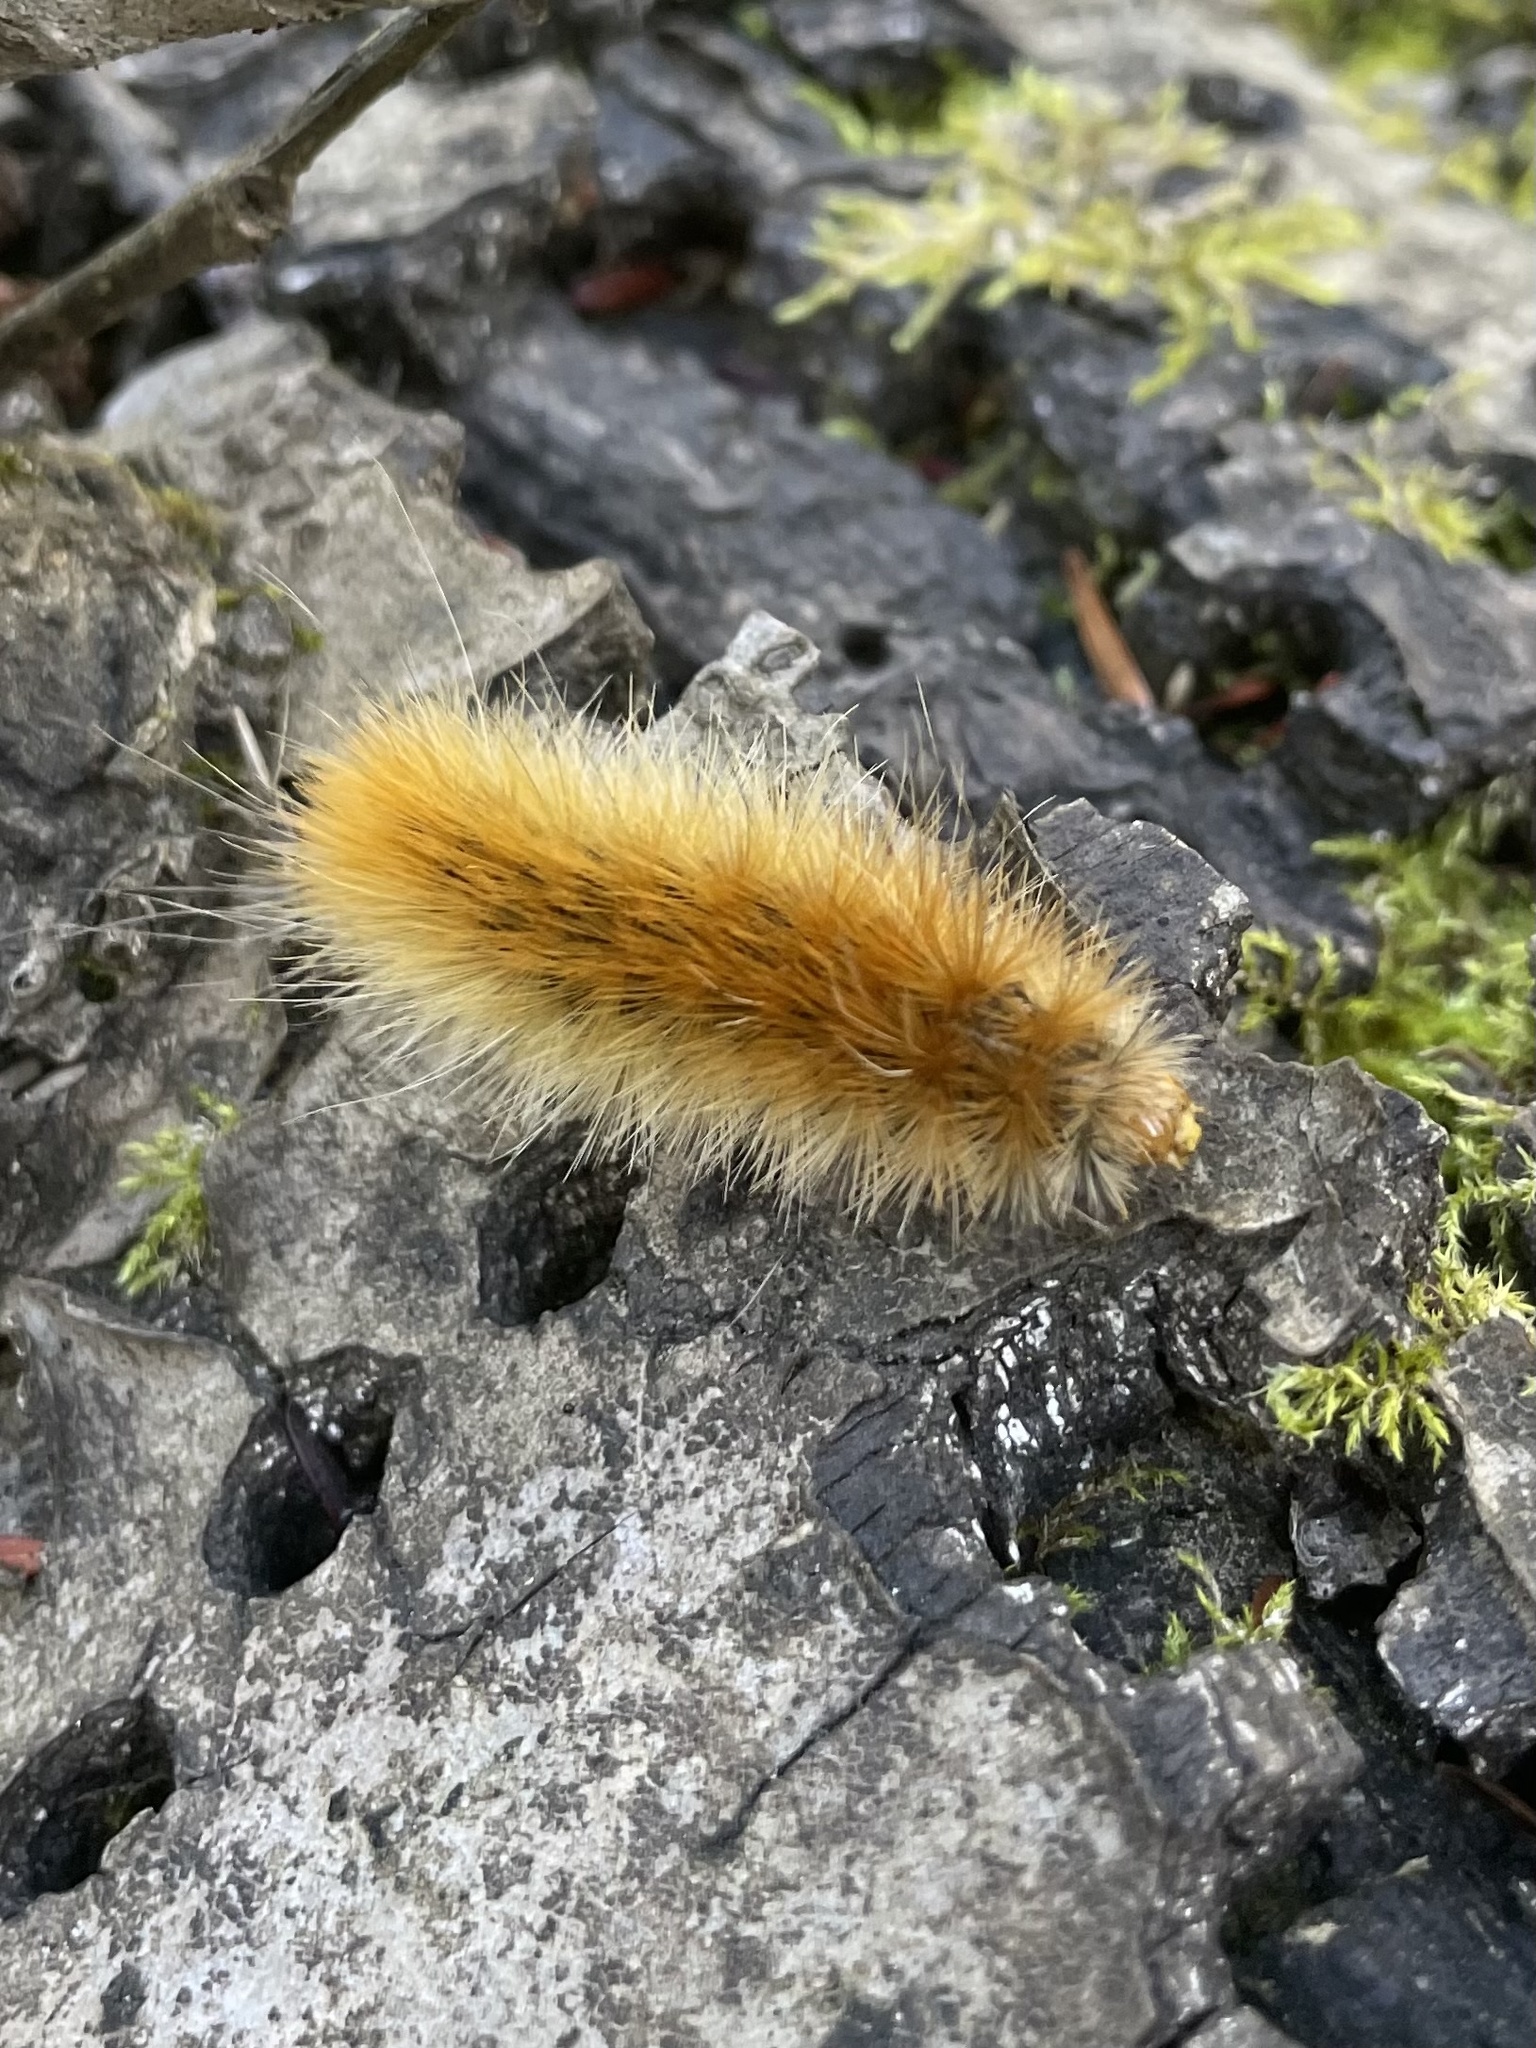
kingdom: Animalia
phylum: Arthropoda
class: Insecta
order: Lepidoptera
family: Erebidae
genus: Spilosoma
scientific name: Spilosoma virginica
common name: Virginia tiger moth
